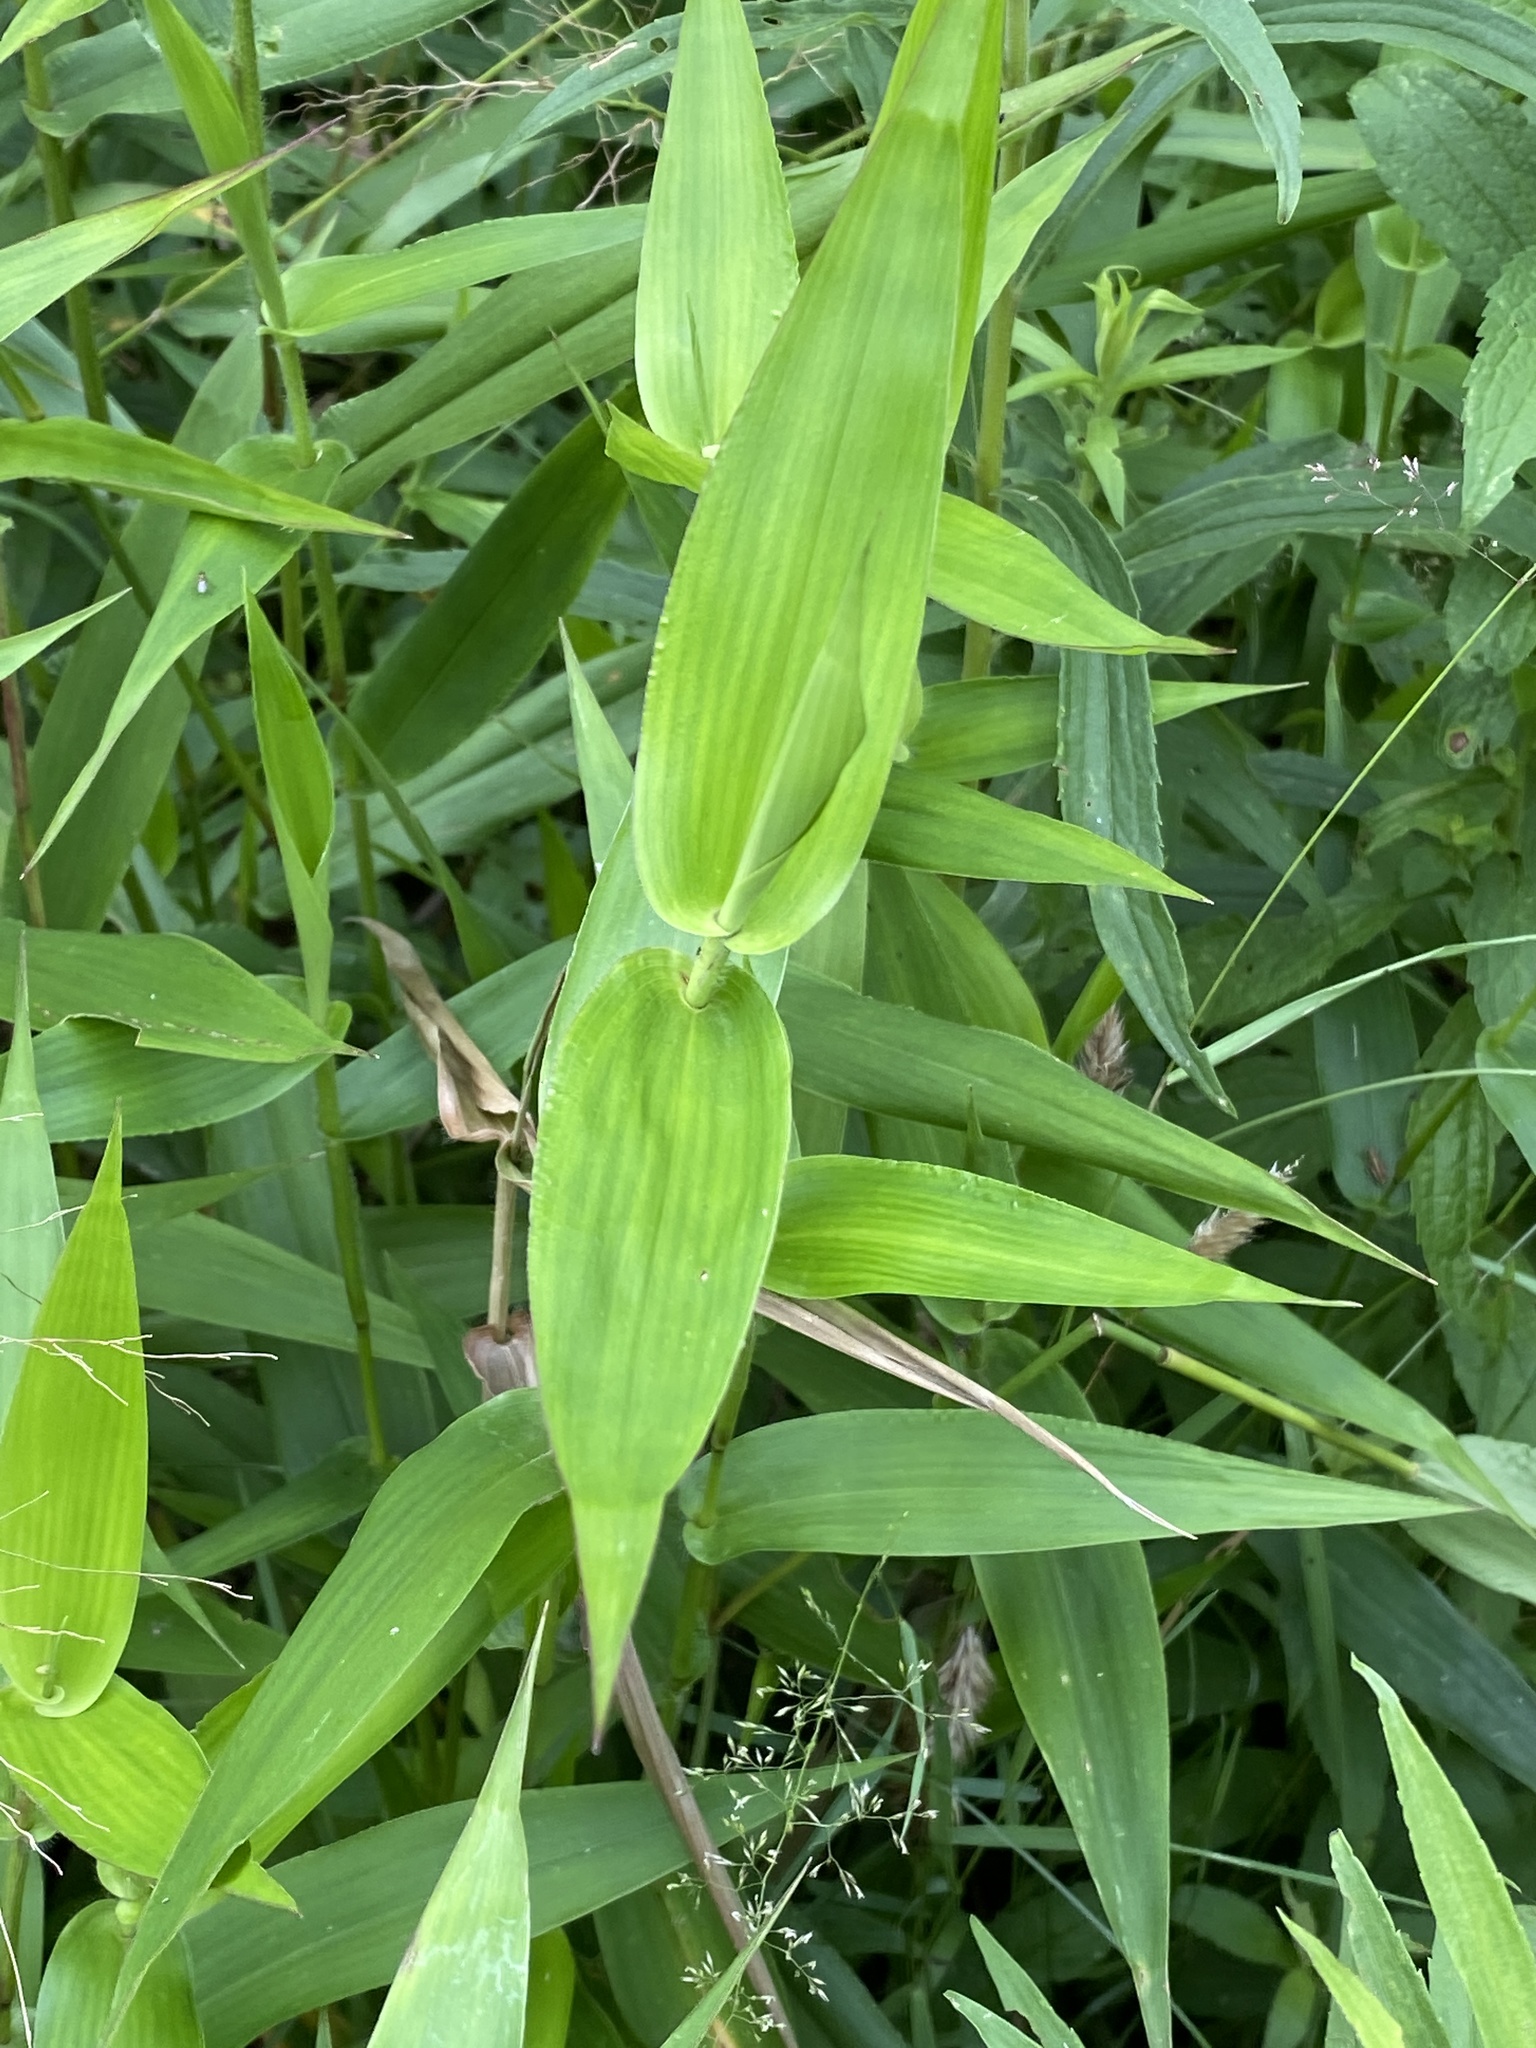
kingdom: Plantae
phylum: Tracheophyta
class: Liliopsida
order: Poales
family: Poaceae
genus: Dichanthelium
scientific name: Dichanthelium clandestinum
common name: Deer-tongue grass
